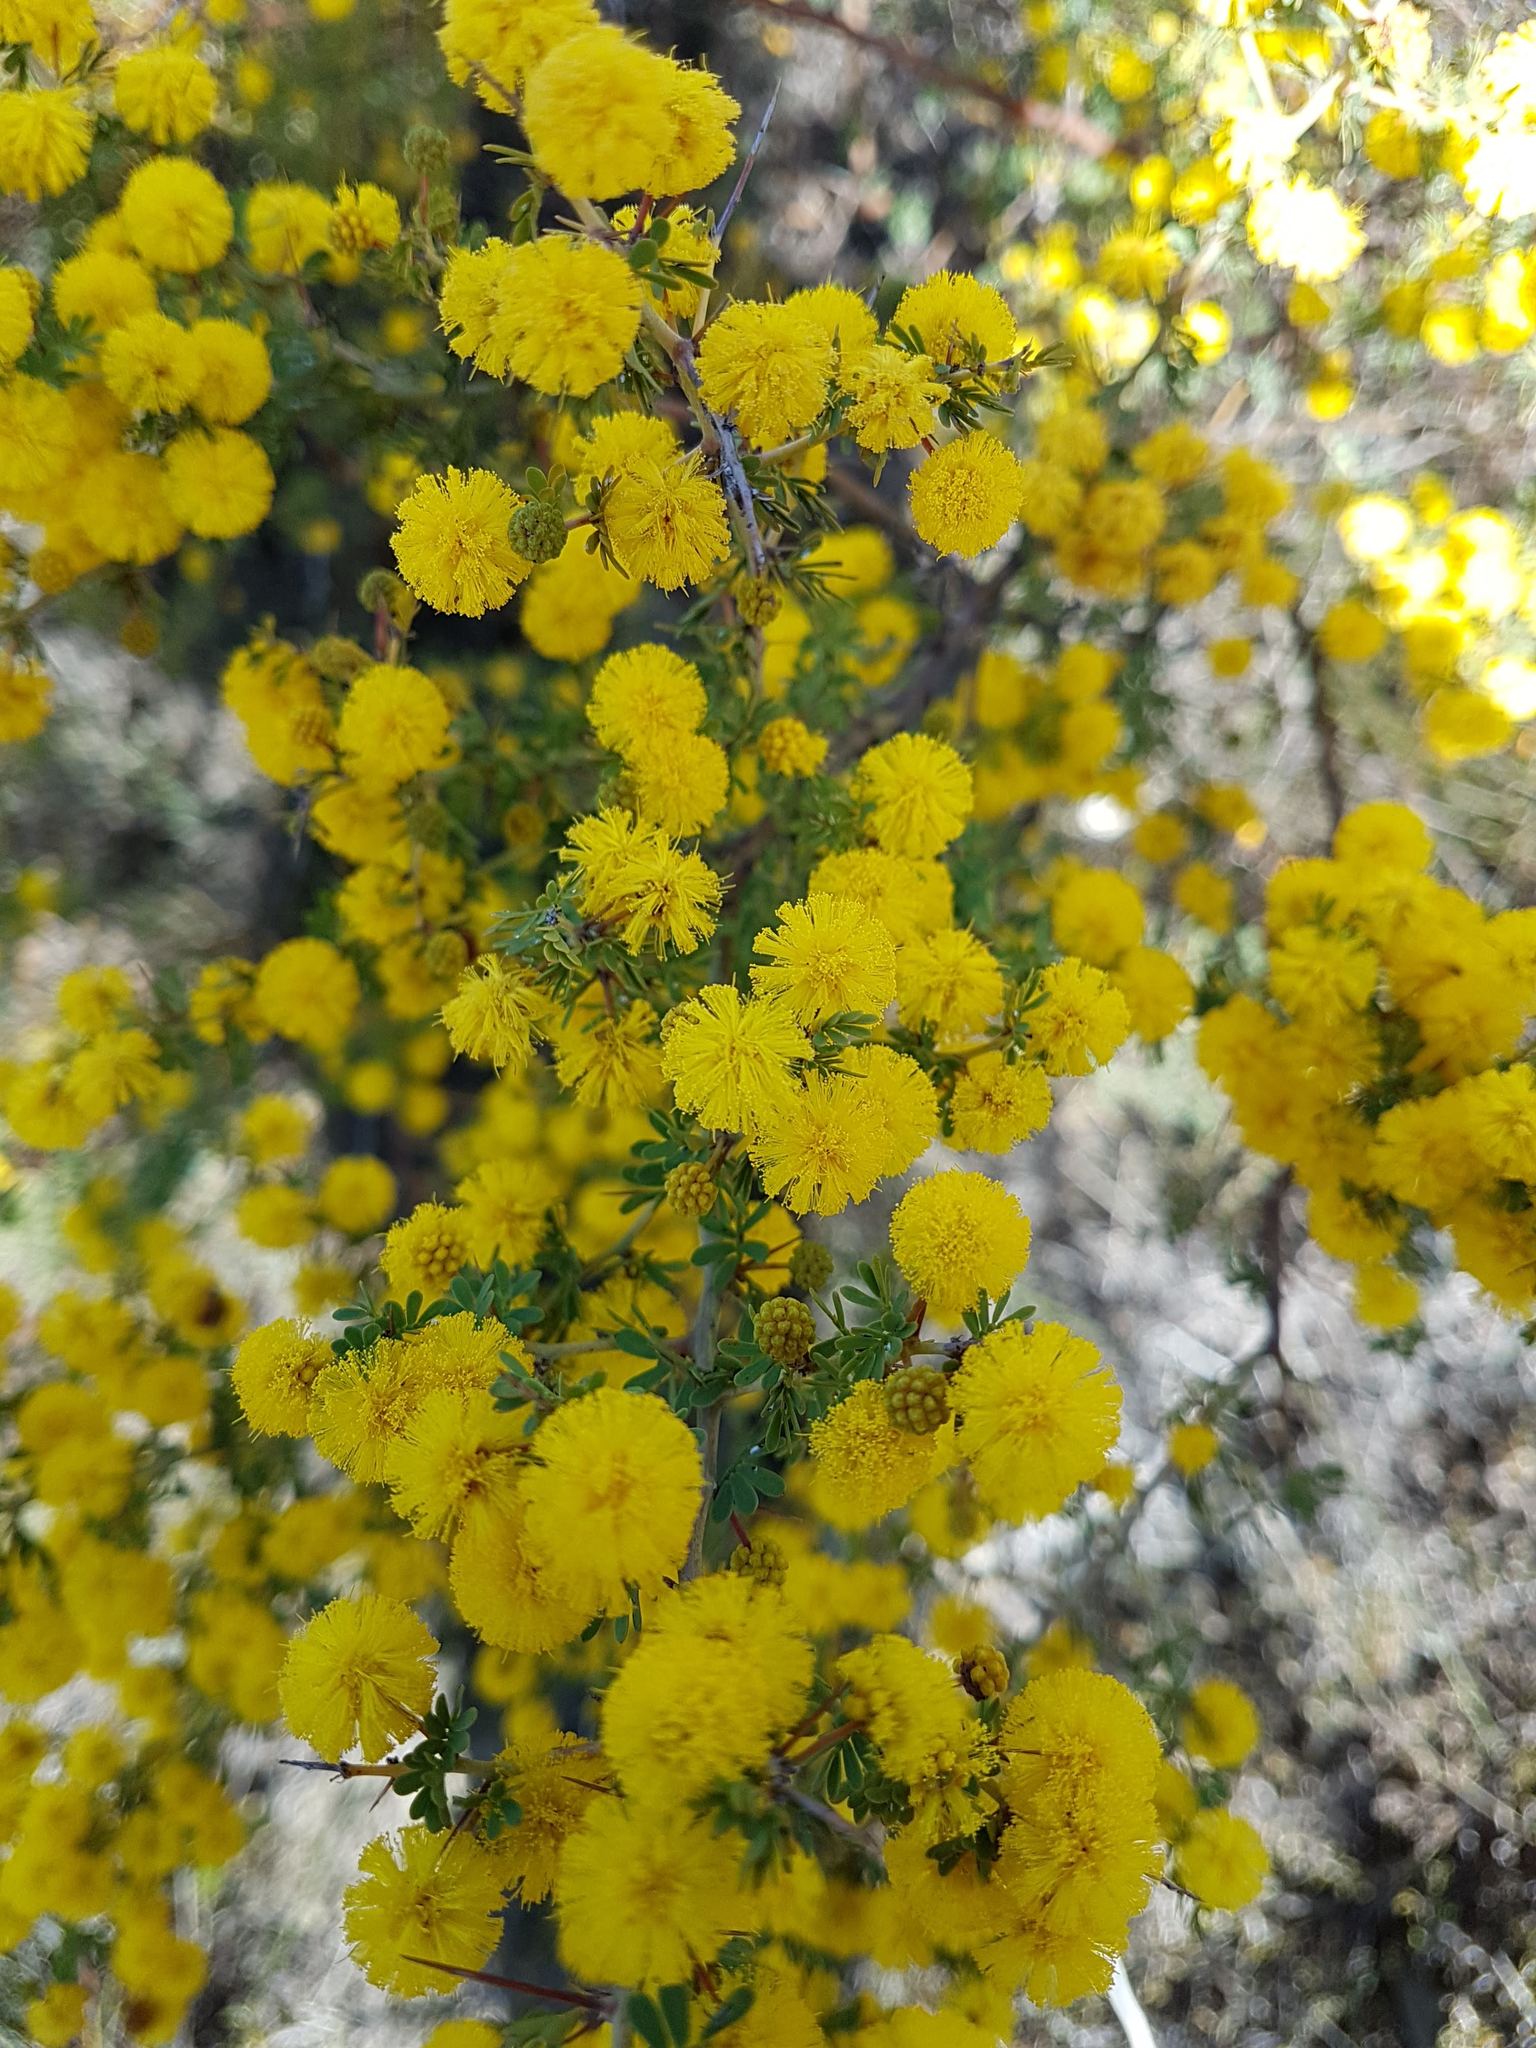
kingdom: Plantae
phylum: Tracheophyta
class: Magnoliopsida
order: Fabales
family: Fabaceae
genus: Acacia
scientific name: Acacia pulchella
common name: Prickly moses
